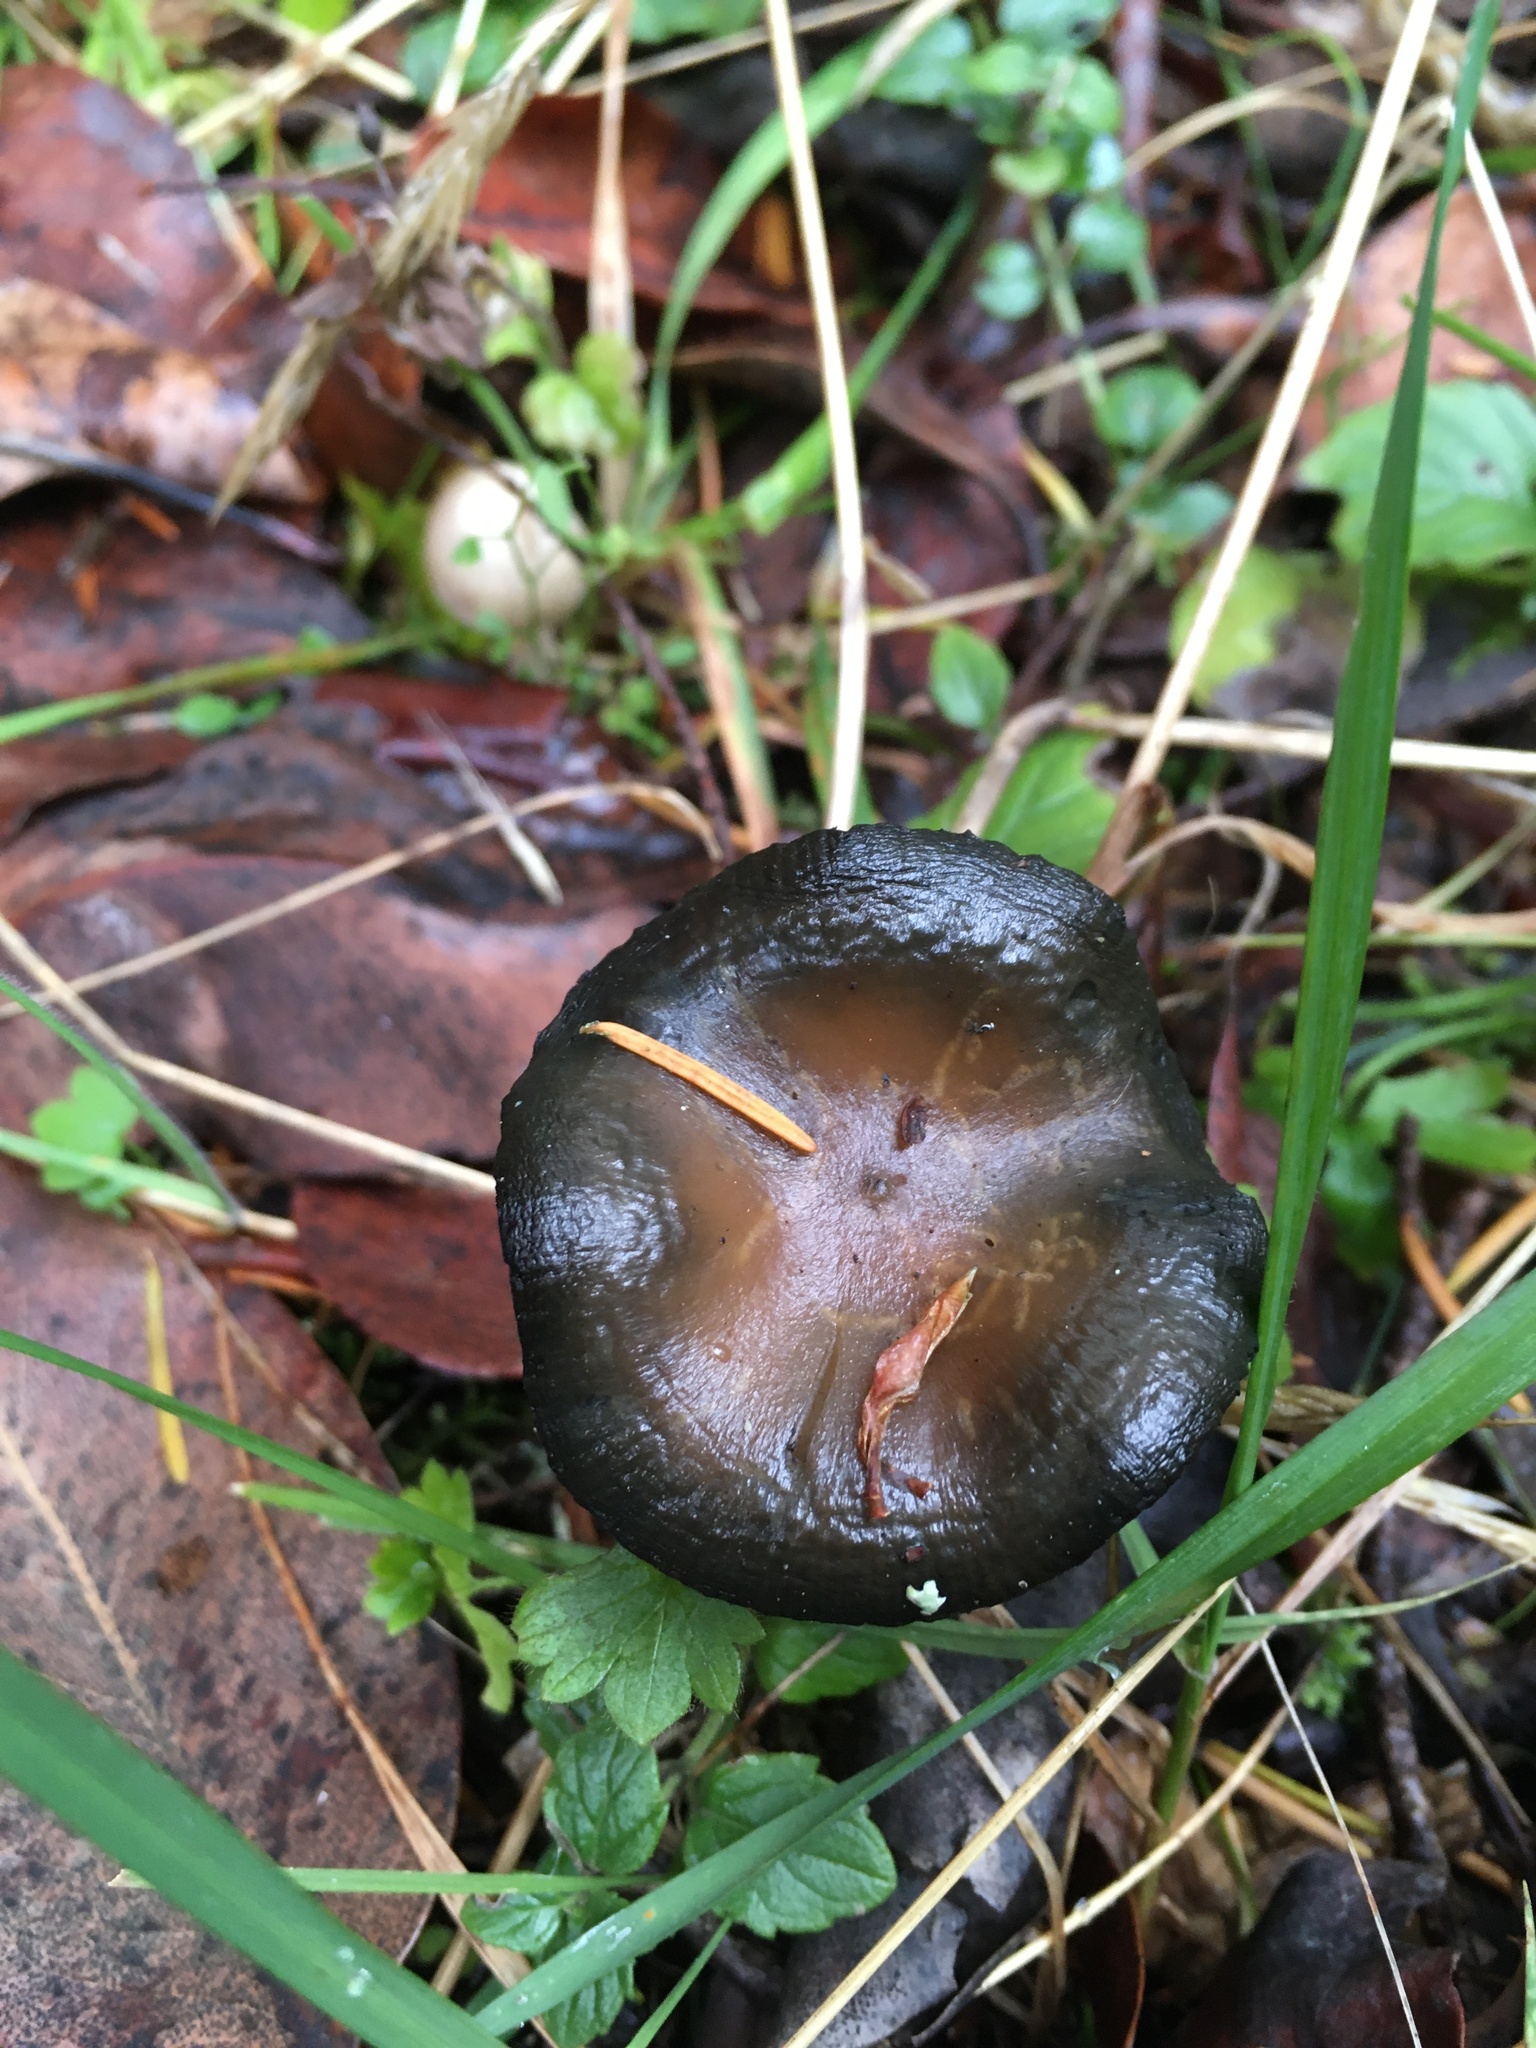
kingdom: Fungi
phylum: Basidiomycota
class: Agaricomycetes
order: Agaricales
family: Hymenogastraceae
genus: Psilocybe
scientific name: Psilocybe cyanescens
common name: Blueleg brownie
